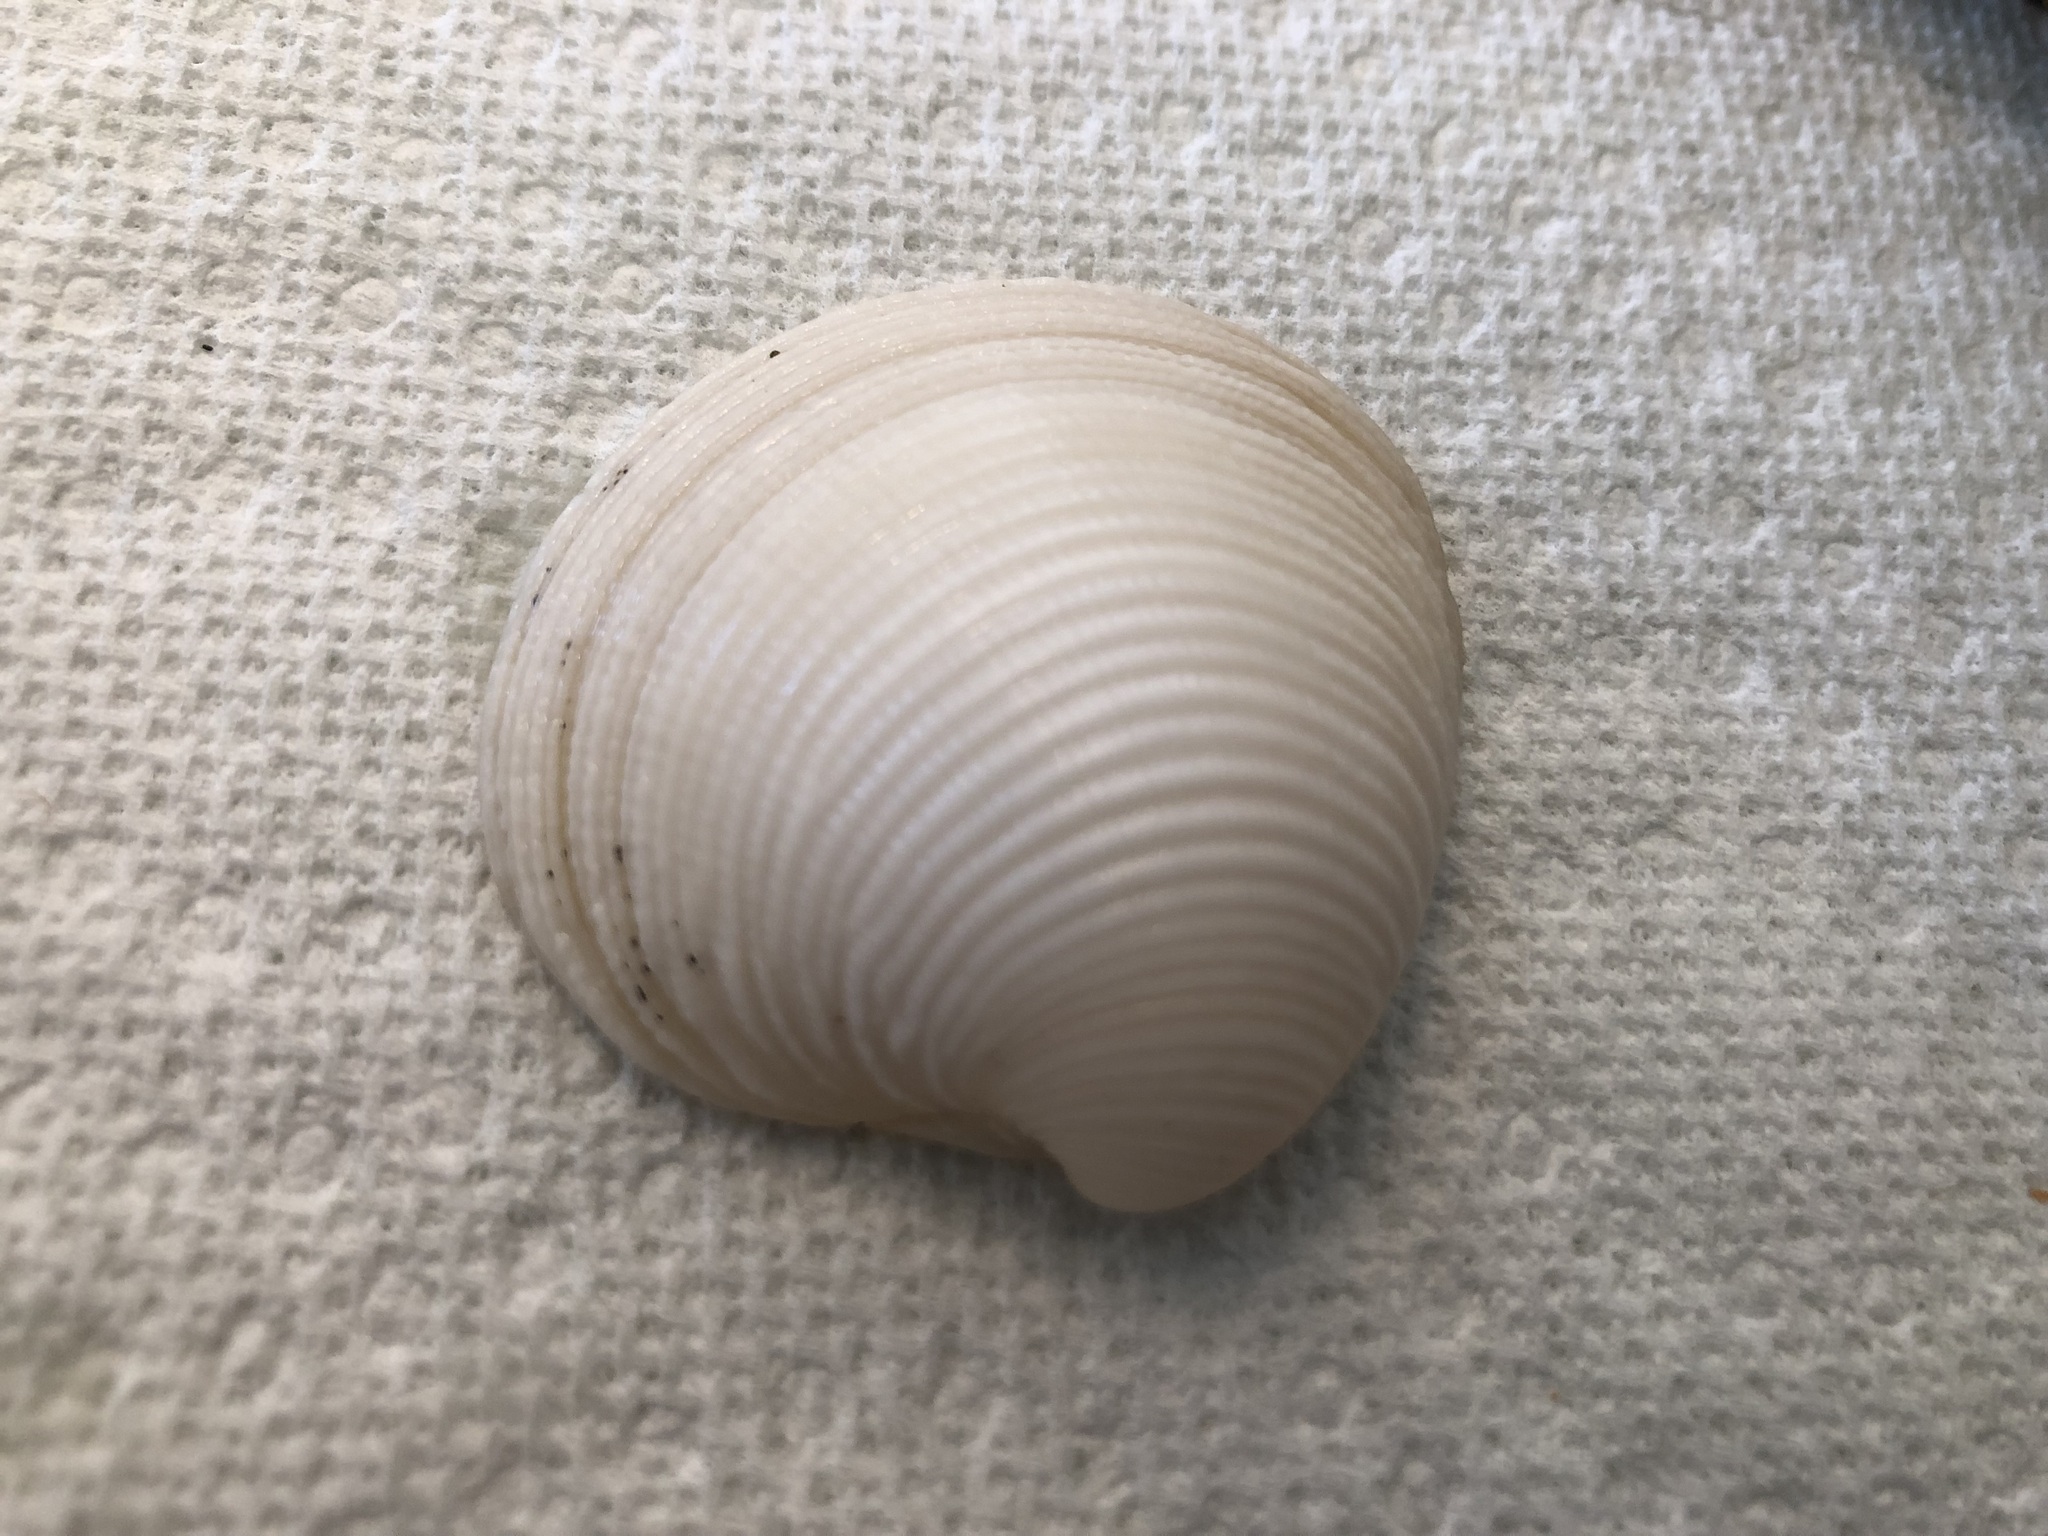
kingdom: Animalia
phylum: Mollusca
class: Bivalvia
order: Venerida
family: Veneridae
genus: Chionopsis
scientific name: Chionopsis intapurpurea
